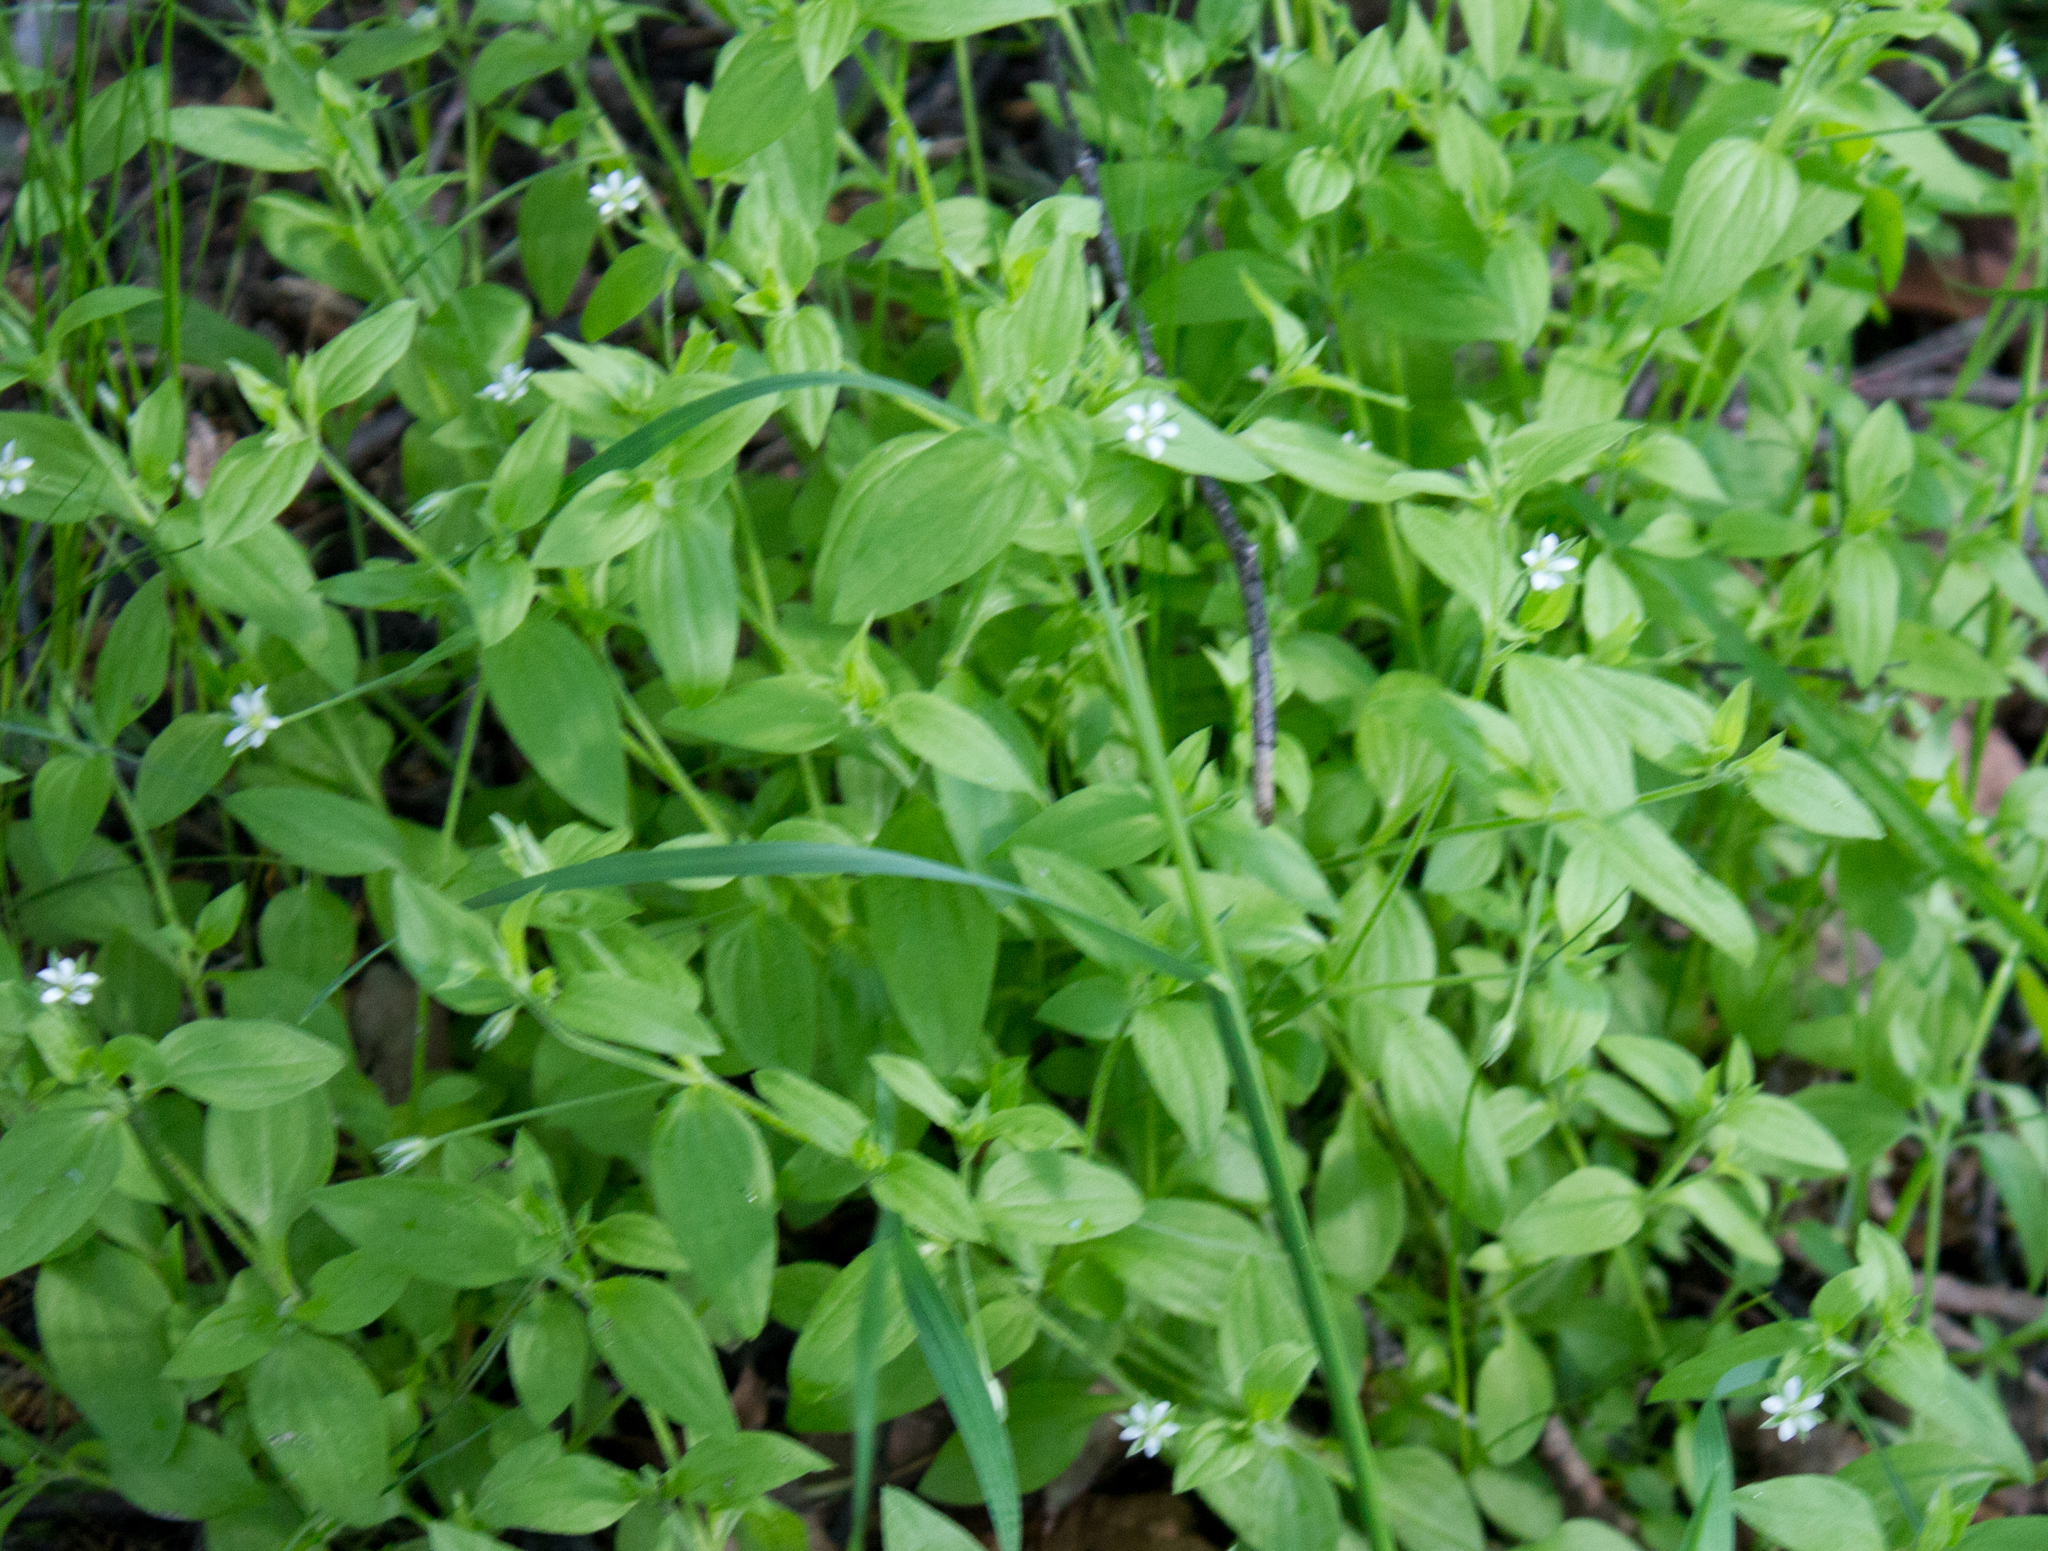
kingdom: Plantae
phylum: Tracheophyta
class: Magnoliopsida
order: Caryophyllales
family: Caryophyllaceae
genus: Moehringia
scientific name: Moehringia trinervia
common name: Three-nerved sandwort
